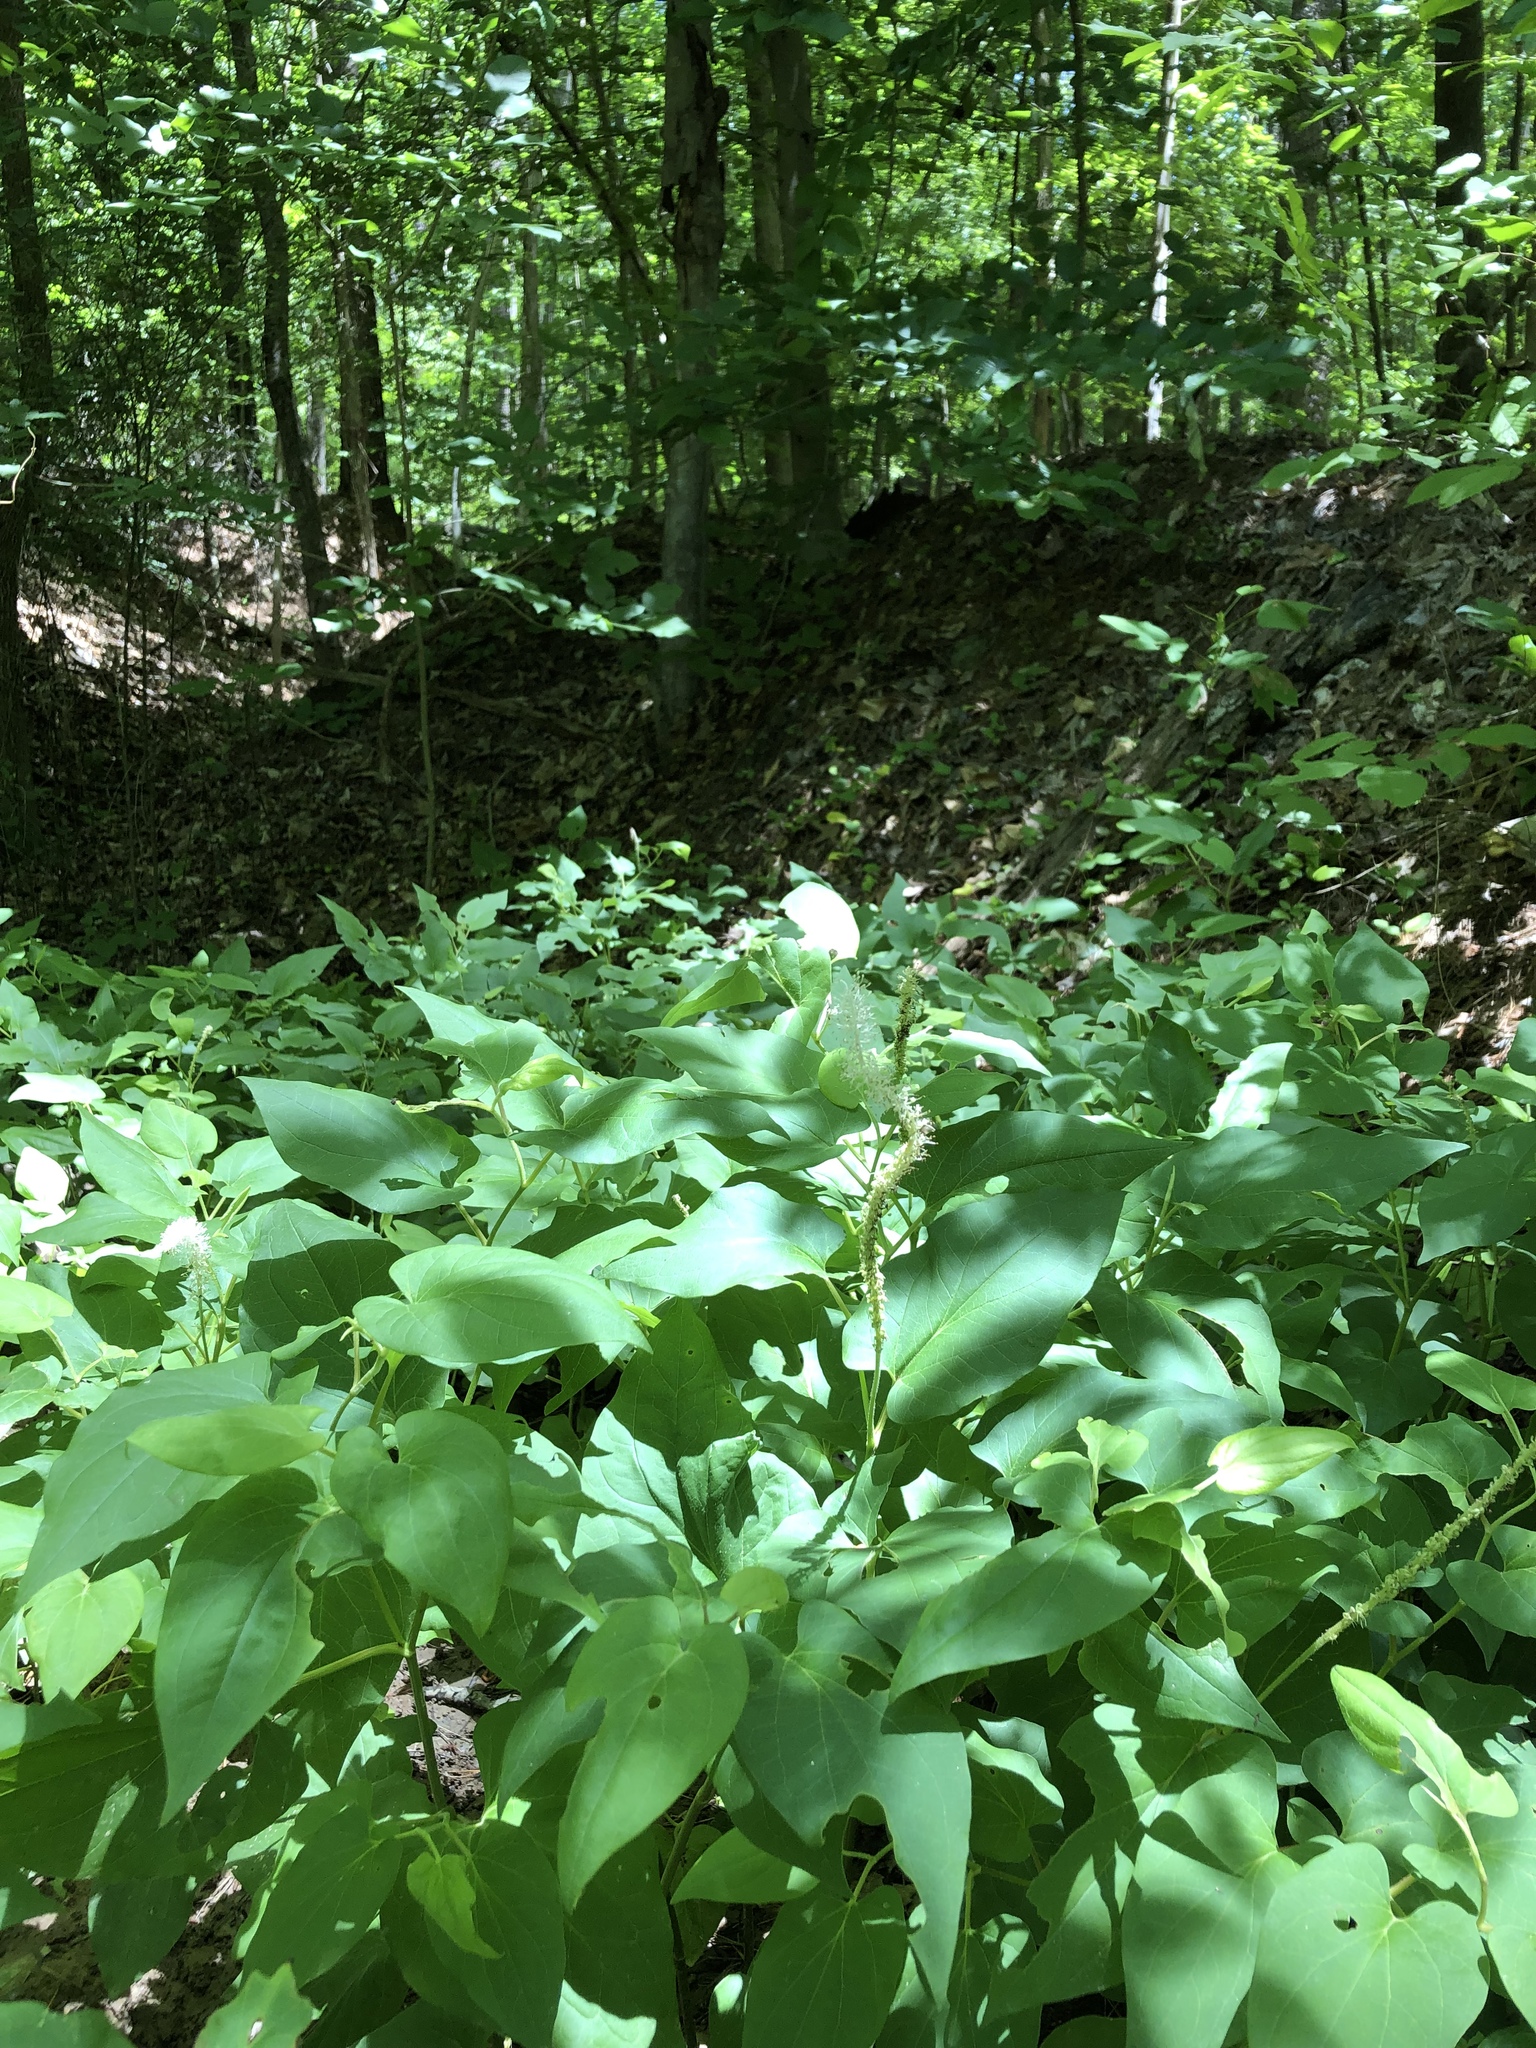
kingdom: Plantae
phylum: Tracheophyta
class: Magnoliopsida
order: Piperales
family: Saururaceae
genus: Saururus
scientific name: Saururus cernuus
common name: Lizard's-tail
